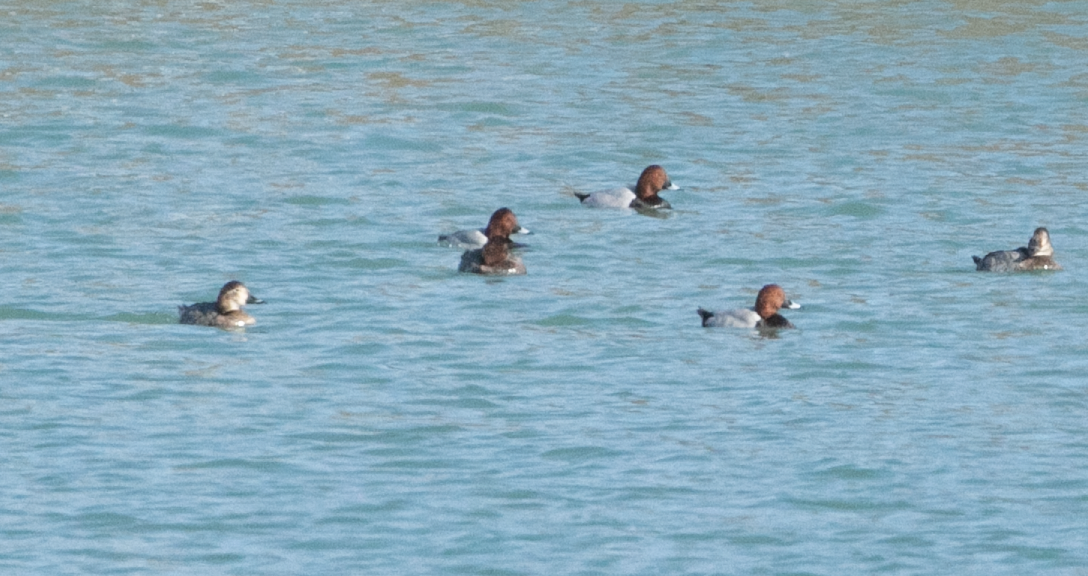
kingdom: Animalia
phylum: Chordata
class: Aves
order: Anseriformes
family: Anatidae
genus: Aythya
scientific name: Aythya ferina
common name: Common pochard
